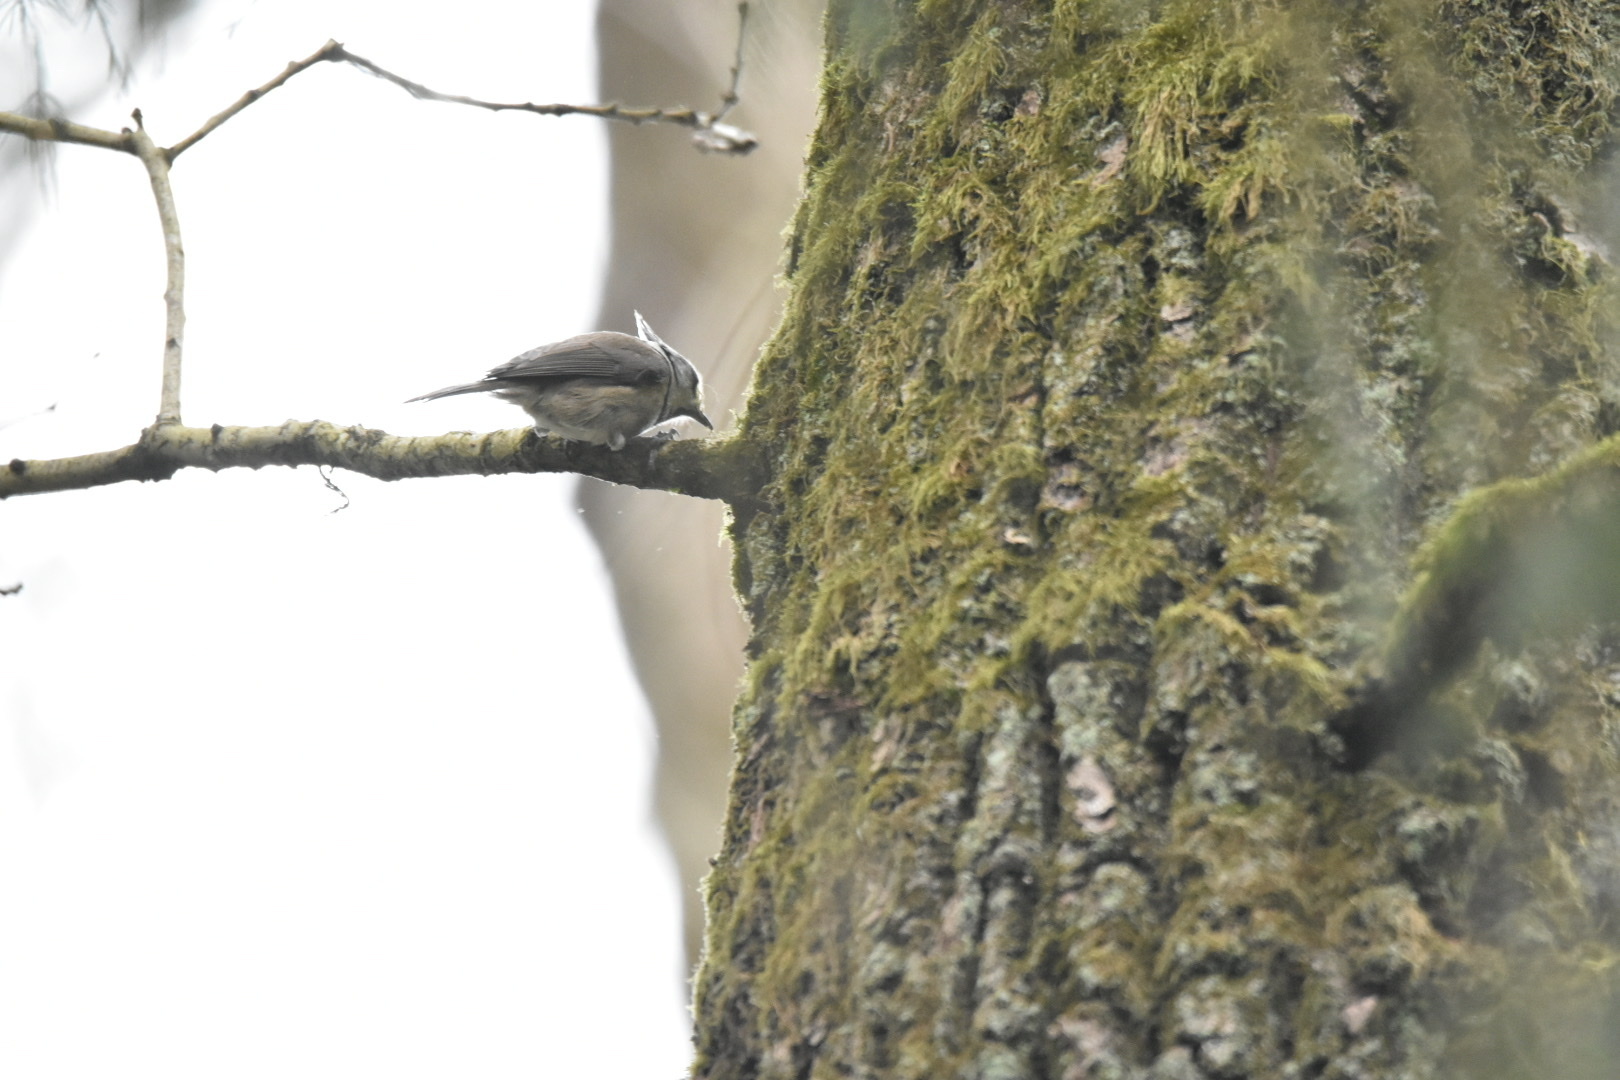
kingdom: Animalia
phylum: Chordata
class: Aves
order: Passeriformes
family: Paridae
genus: Lophophanes
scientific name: Lophophanes cristatus
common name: European crested tit
